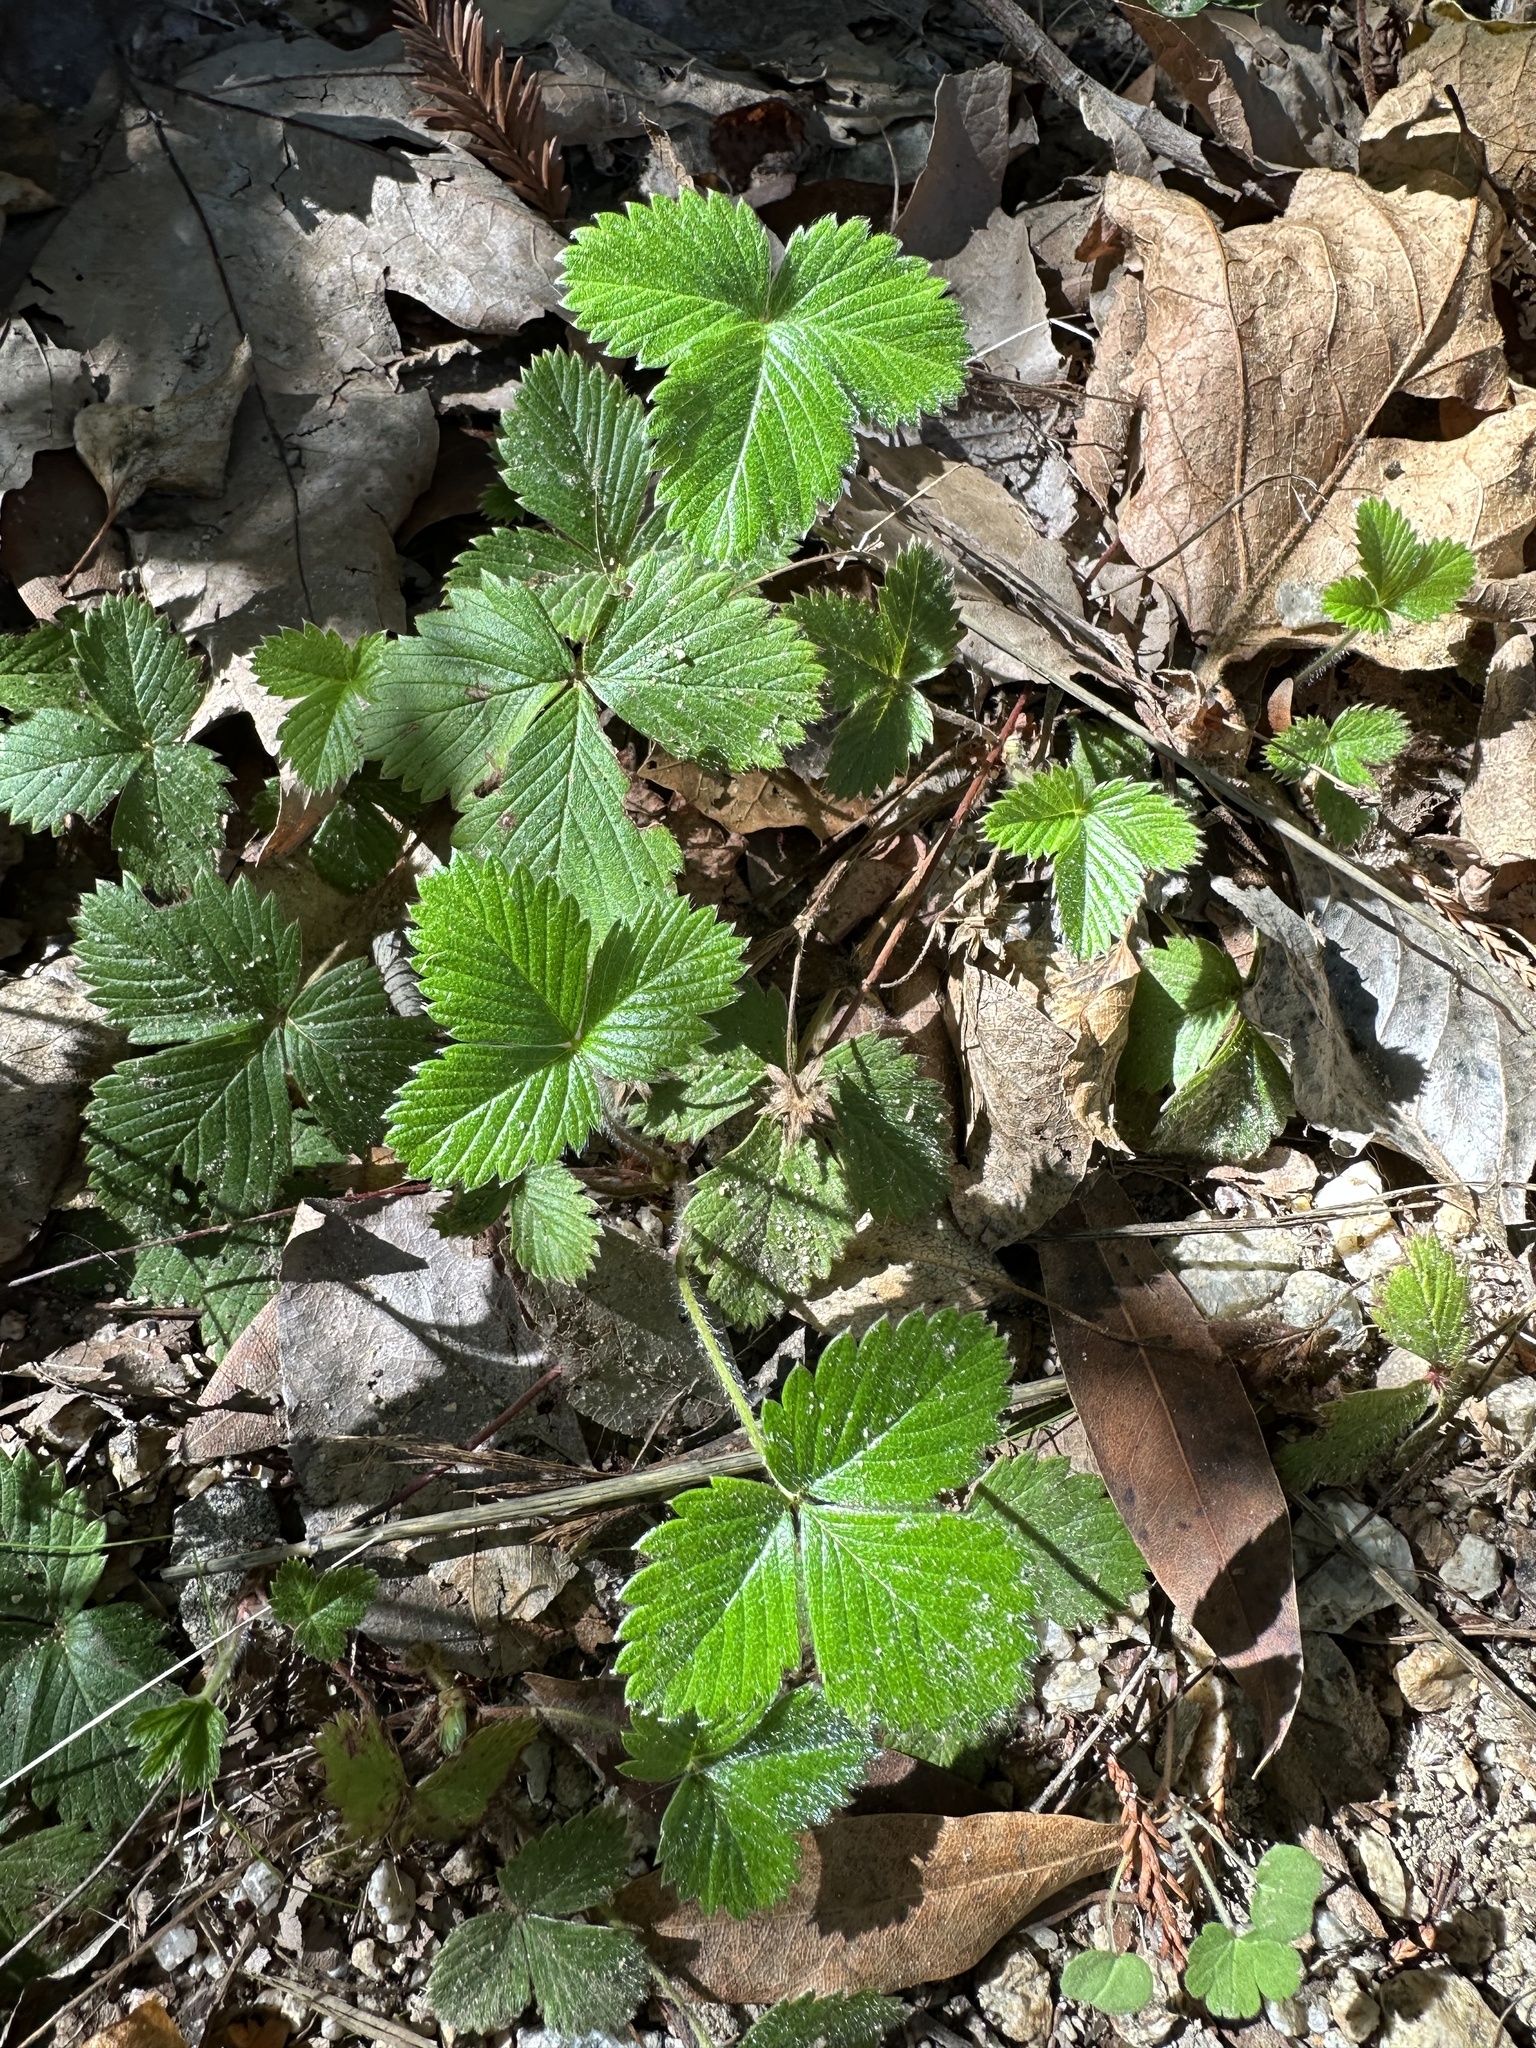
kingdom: Plantae
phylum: Tracheophyta
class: Magnoliopsida
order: Rosales
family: Rosaceae
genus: Fragaria
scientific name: Fragaria vesca
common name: Wild strawberry
